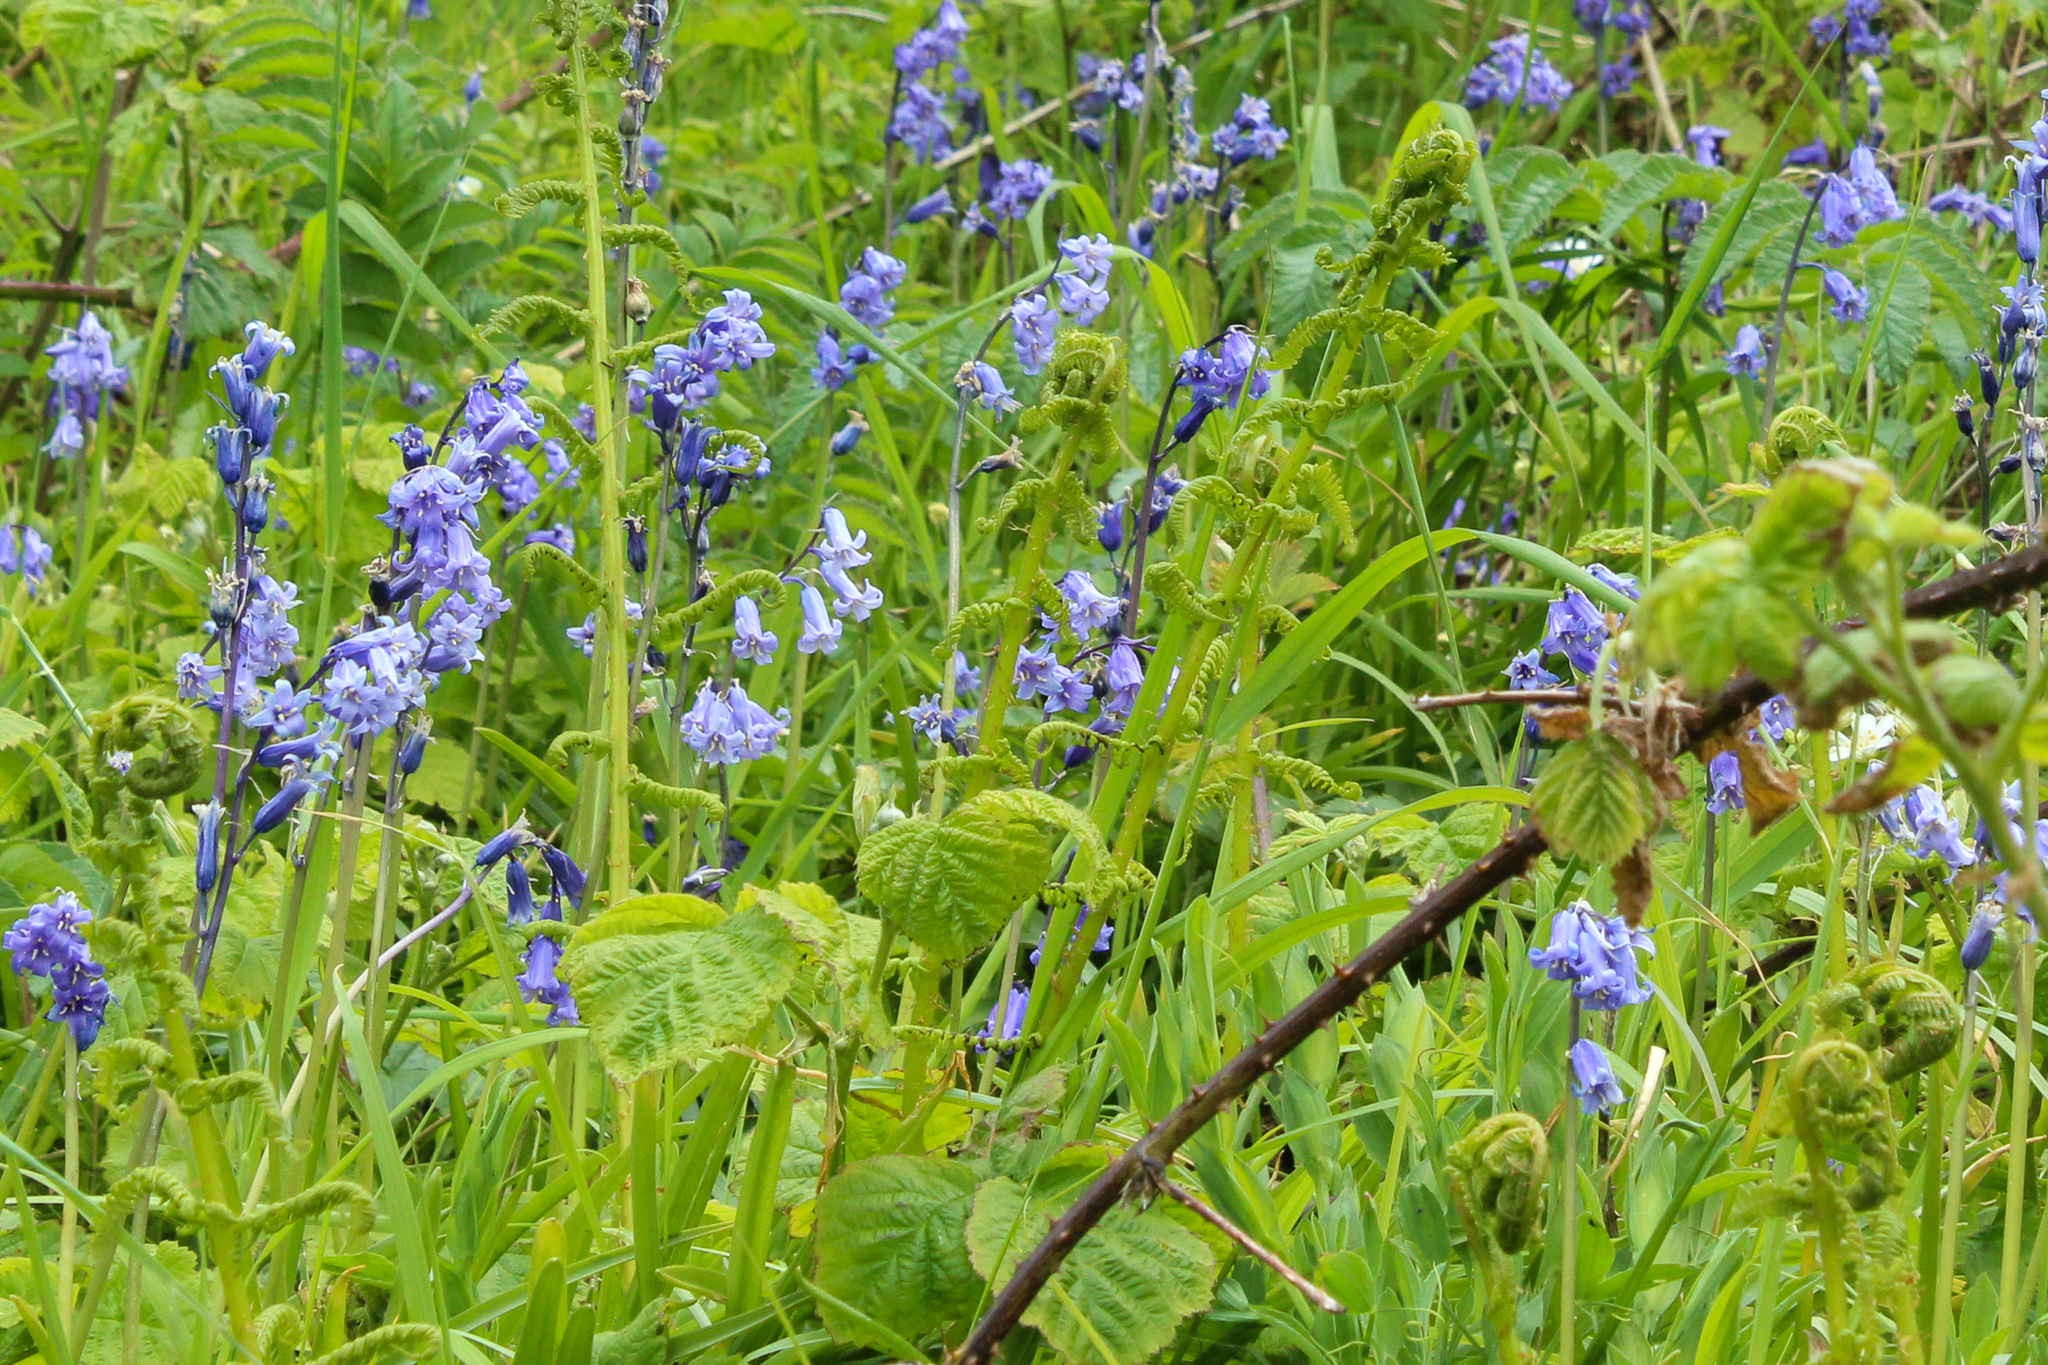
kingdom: Plantae
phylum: Tracheophyta
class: Liliopsida
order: Asparagales
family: Asparagaceae
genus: Hyacinthoides
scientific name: Hyacinthoides non-scripta
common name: Bluebell
